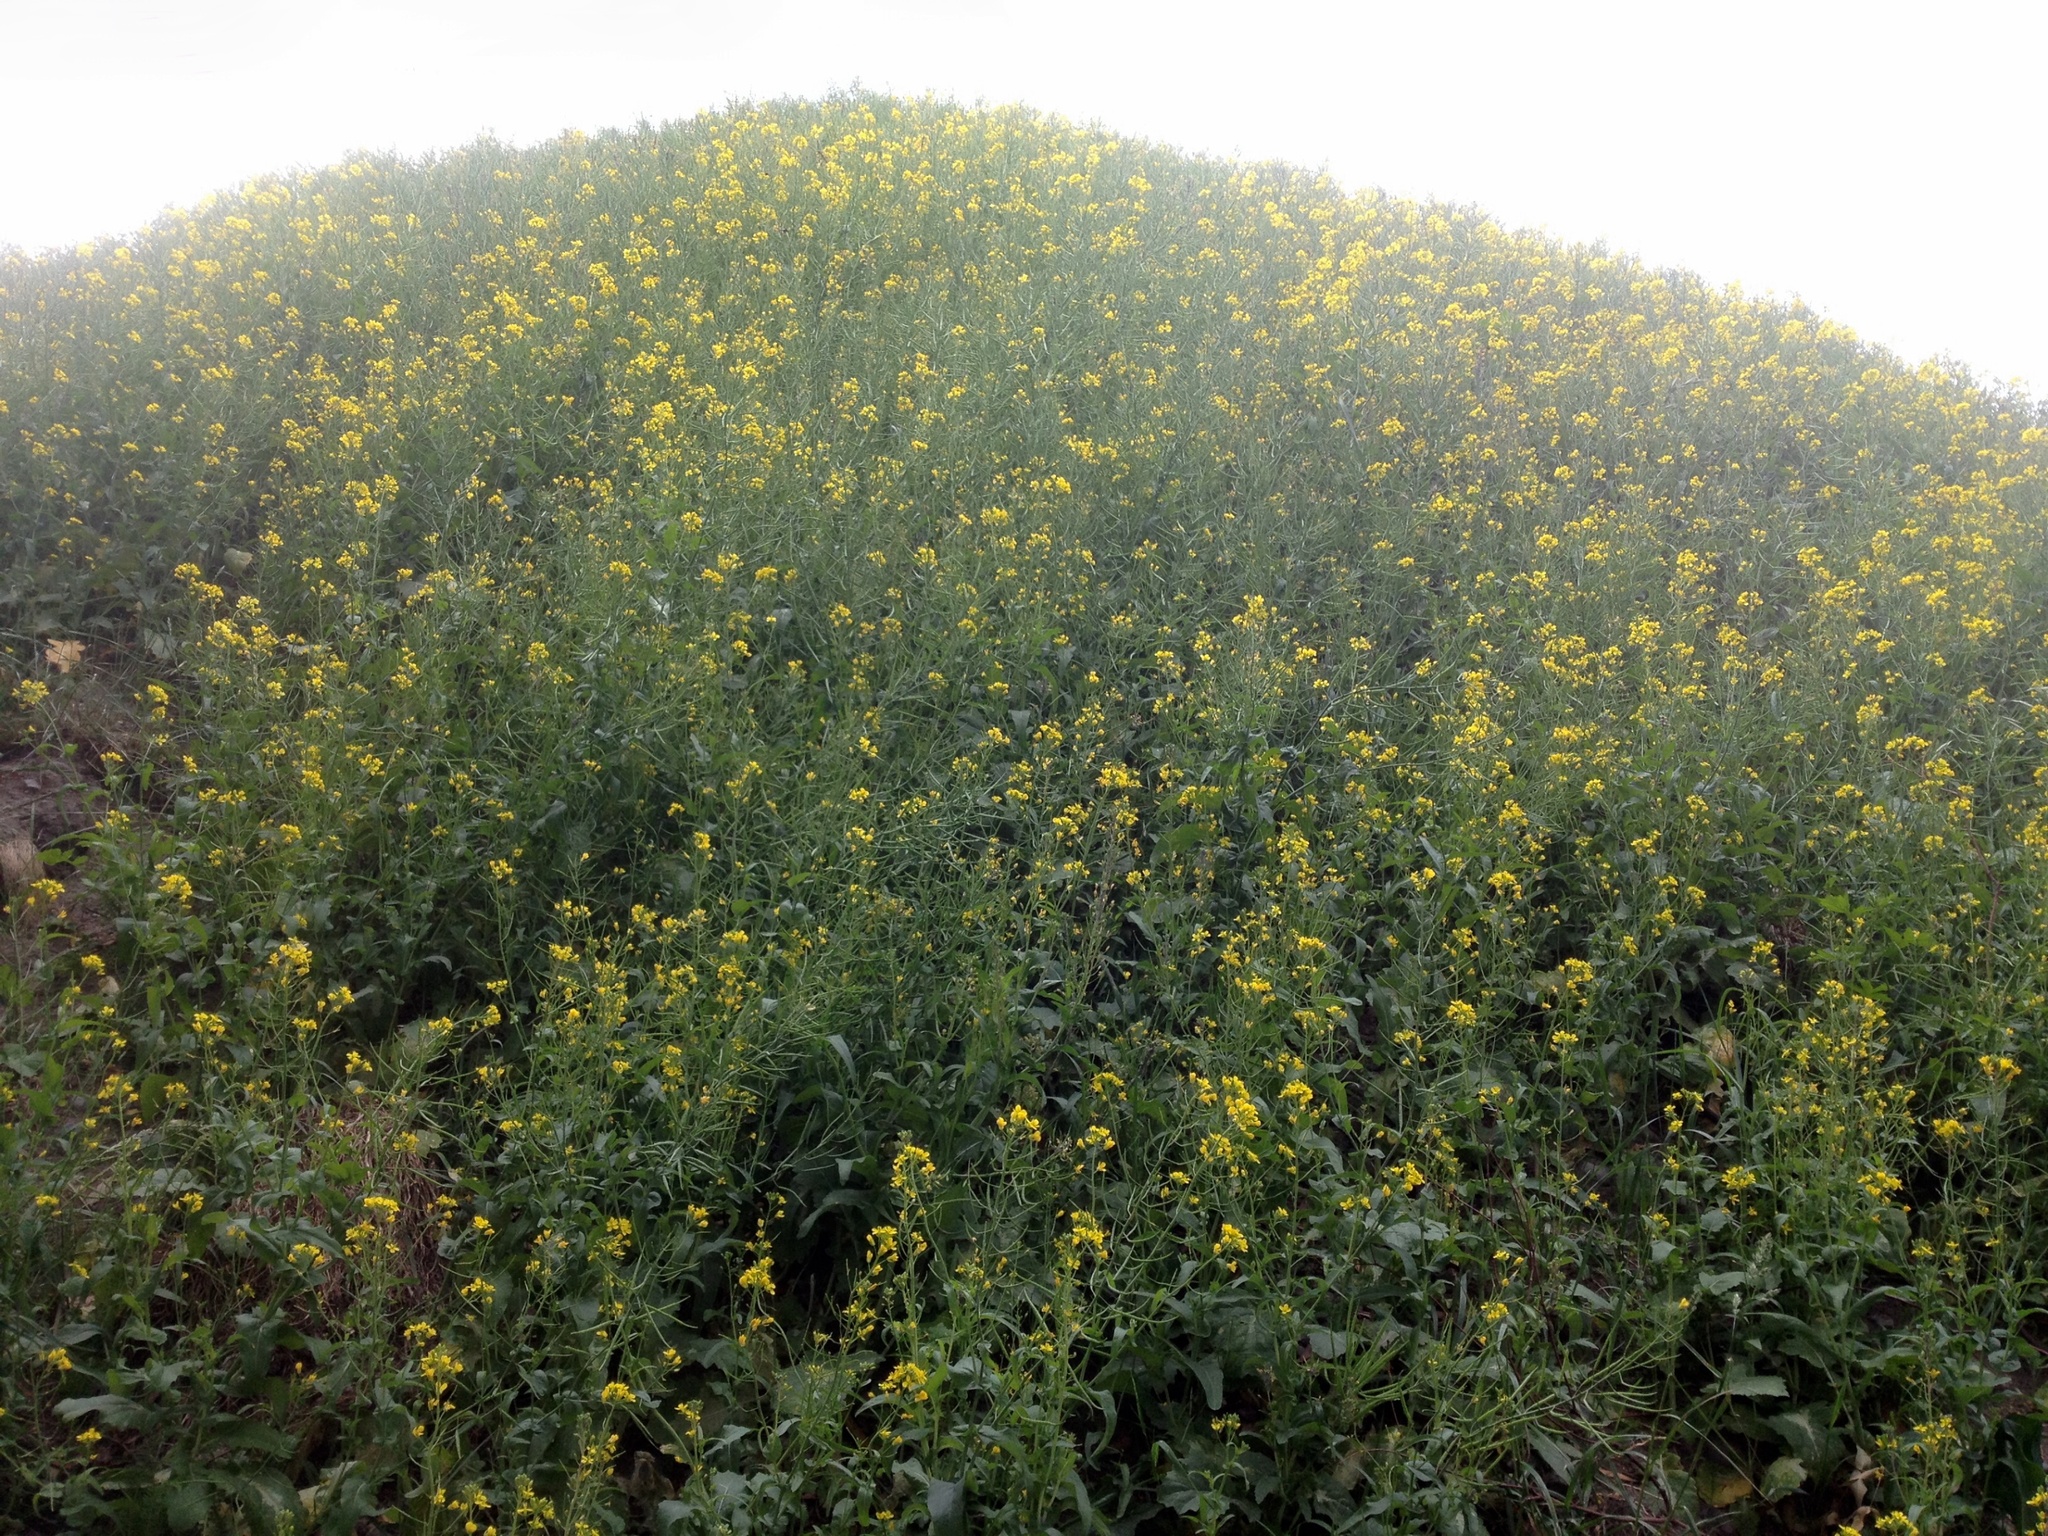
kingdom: Plantae
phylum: Tracheophyta
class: Magnoliopsida
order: Brassicales
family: Brassicaceae
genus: Brassica
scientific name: Brassica rapa
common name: Field mustard
